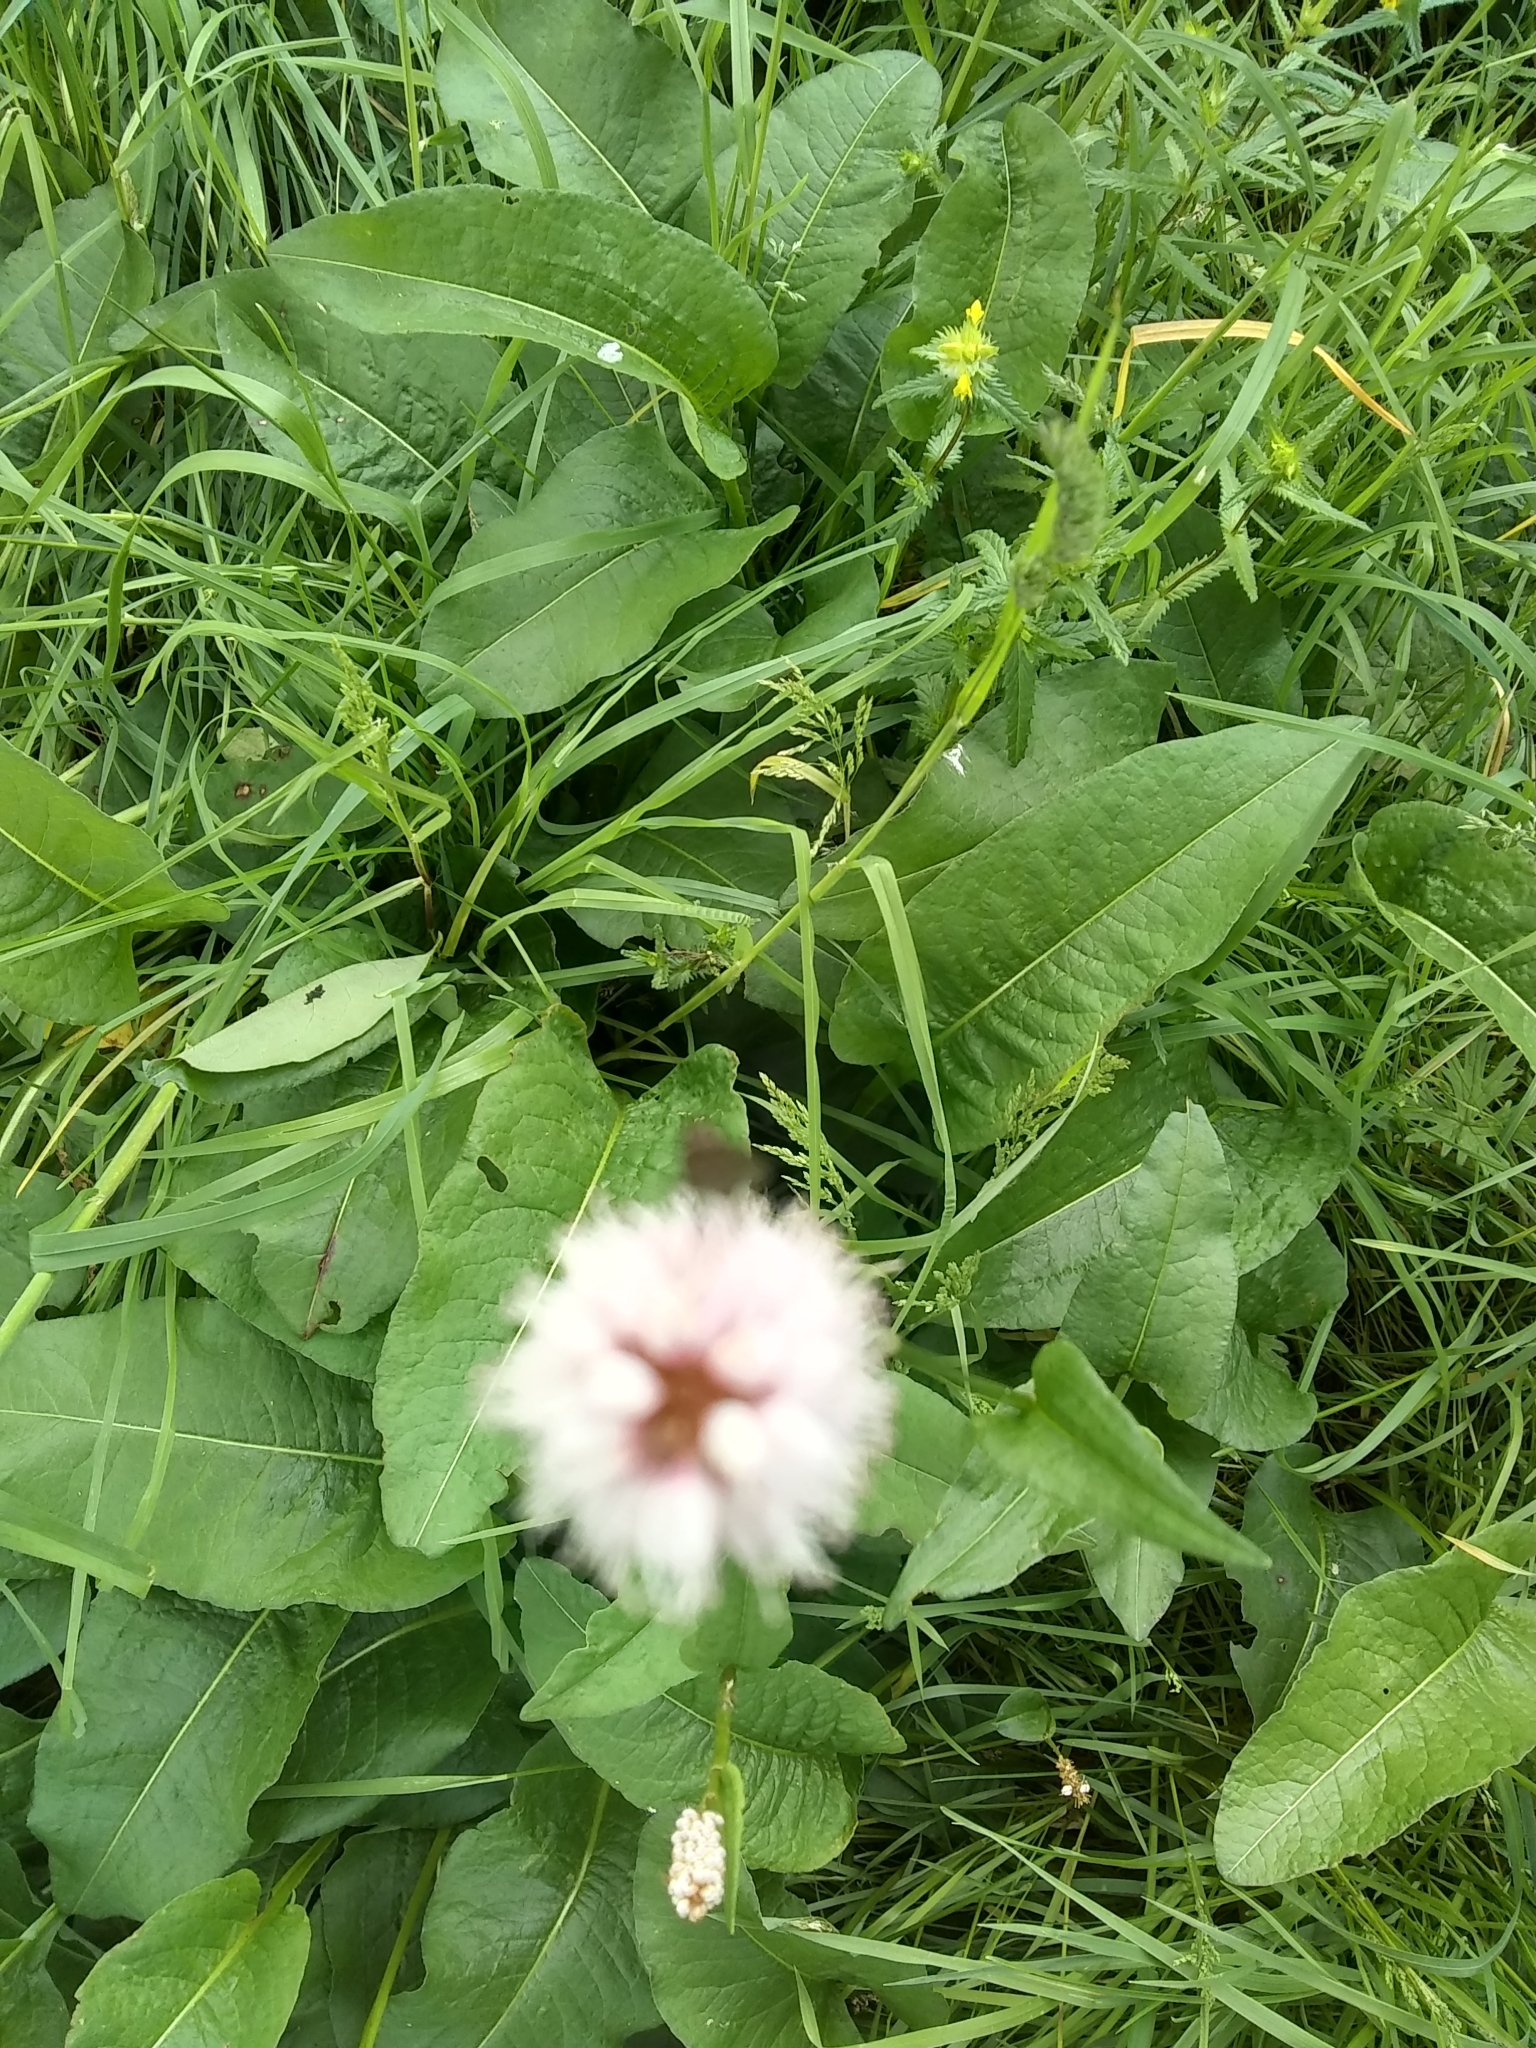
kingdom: Plantae
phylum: Tracheophyta
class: Magnoliopsida
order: Caryophyllales
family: Polygonaceae
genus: Bistorta
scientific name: Bistorta officinalis
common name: Common bistort
